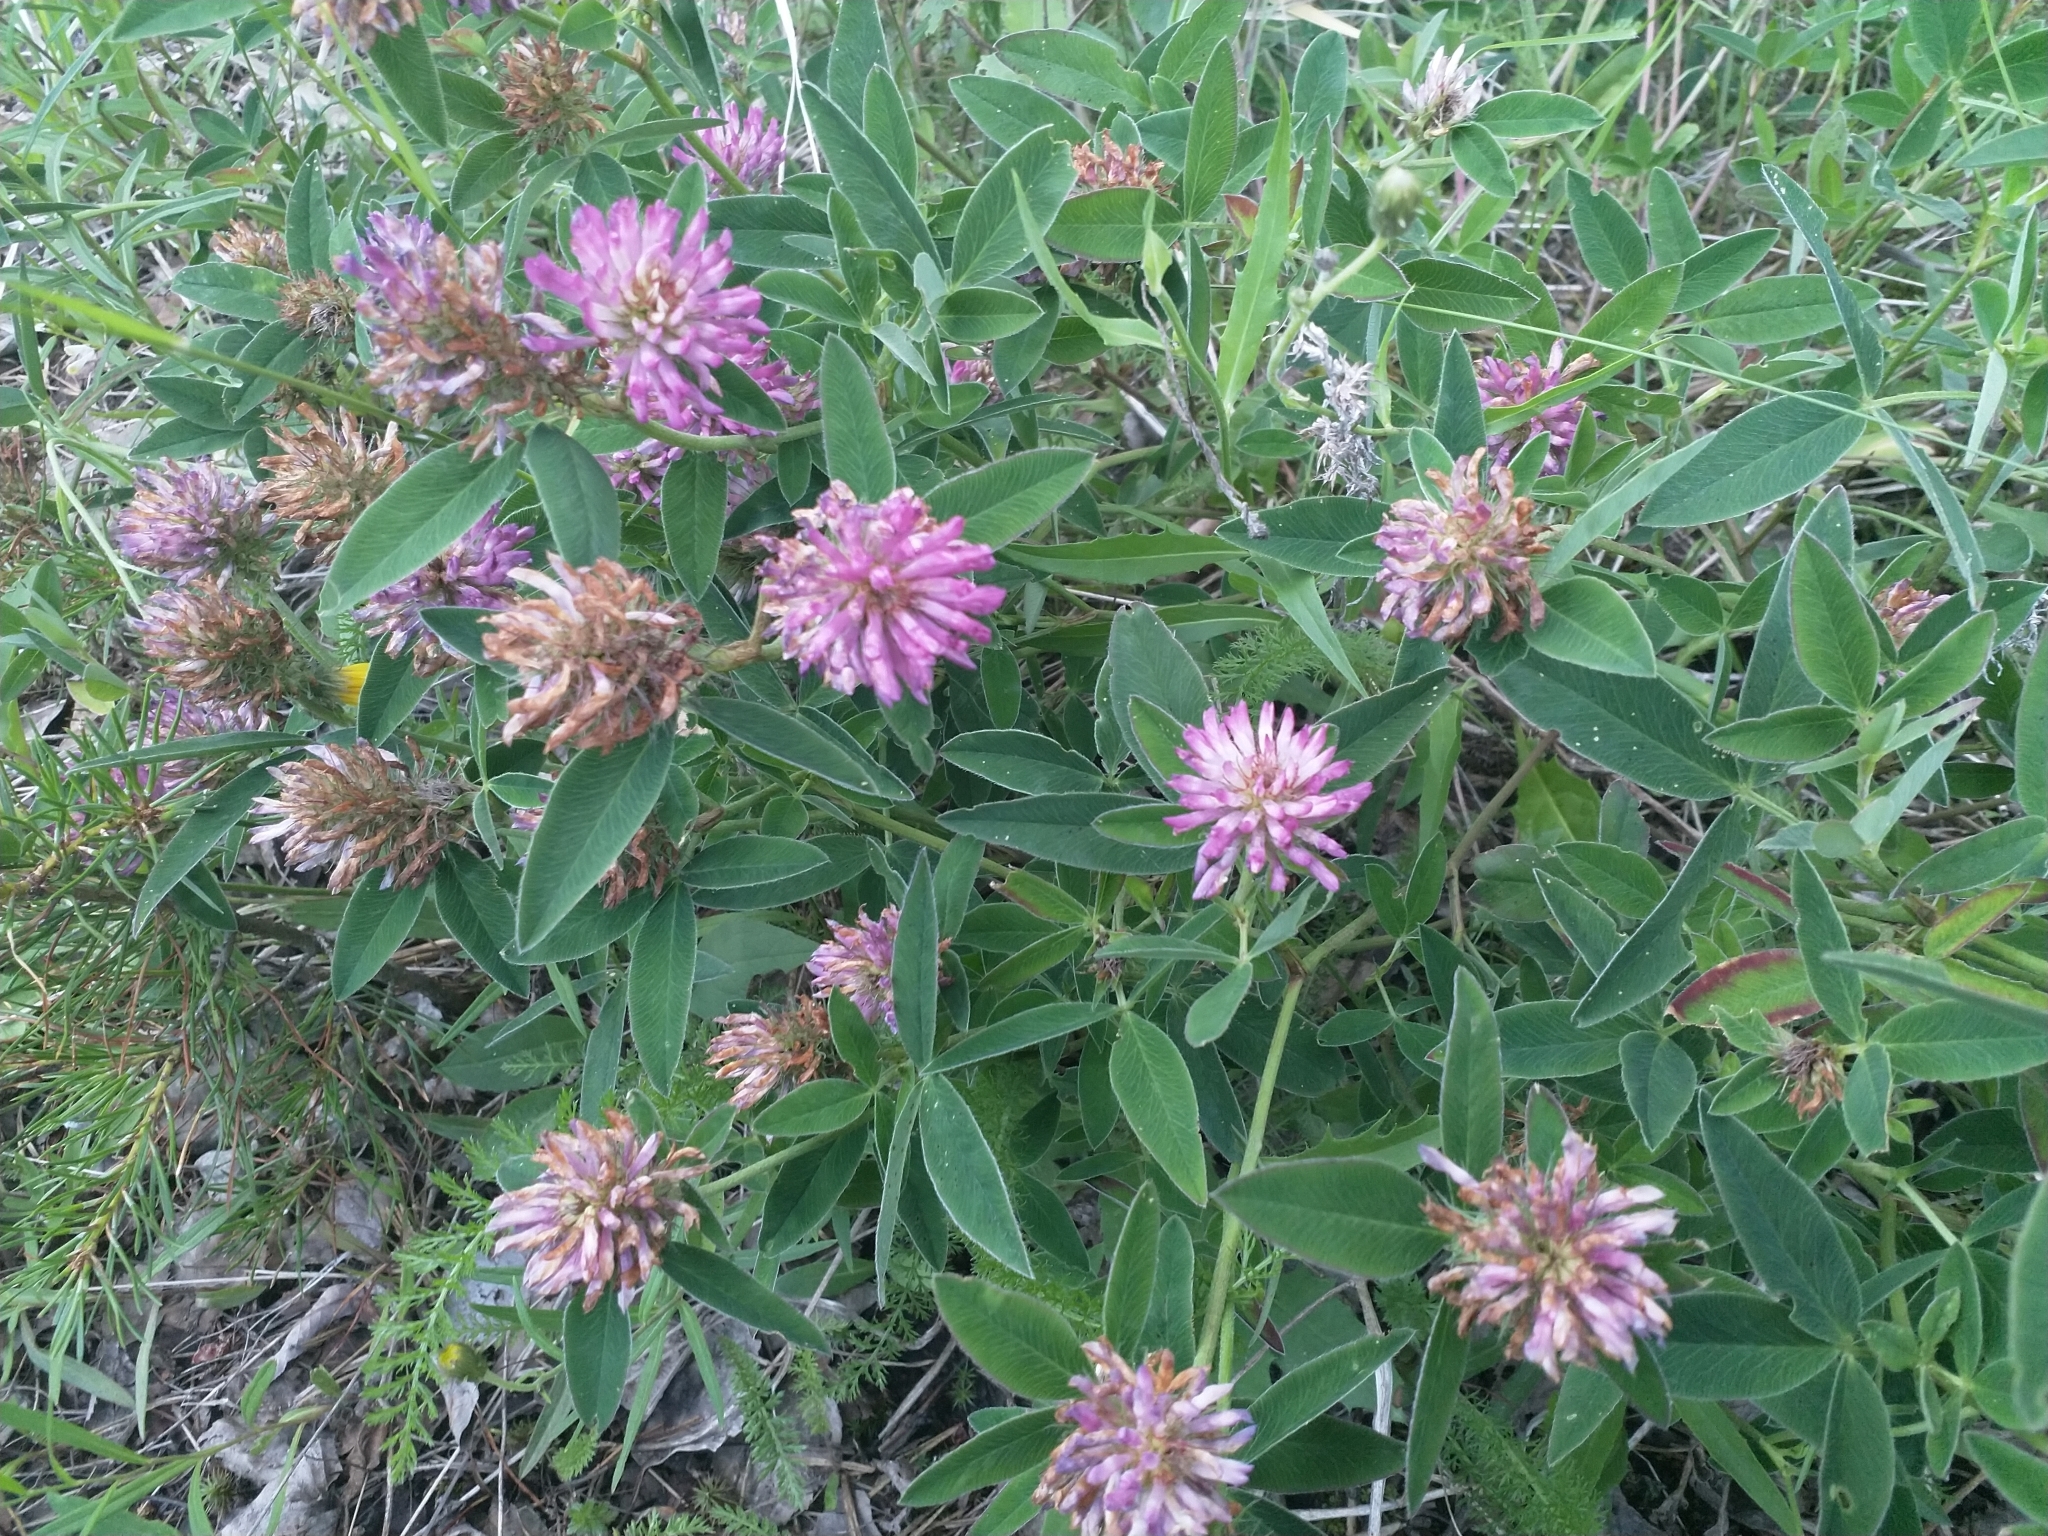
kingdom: Plantae
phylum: Tracheophyta
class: Magnoliopsida
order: Fabales
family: Fabaceae
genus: Trifolium
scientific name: Trifolium medium
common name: Zigzag clover
